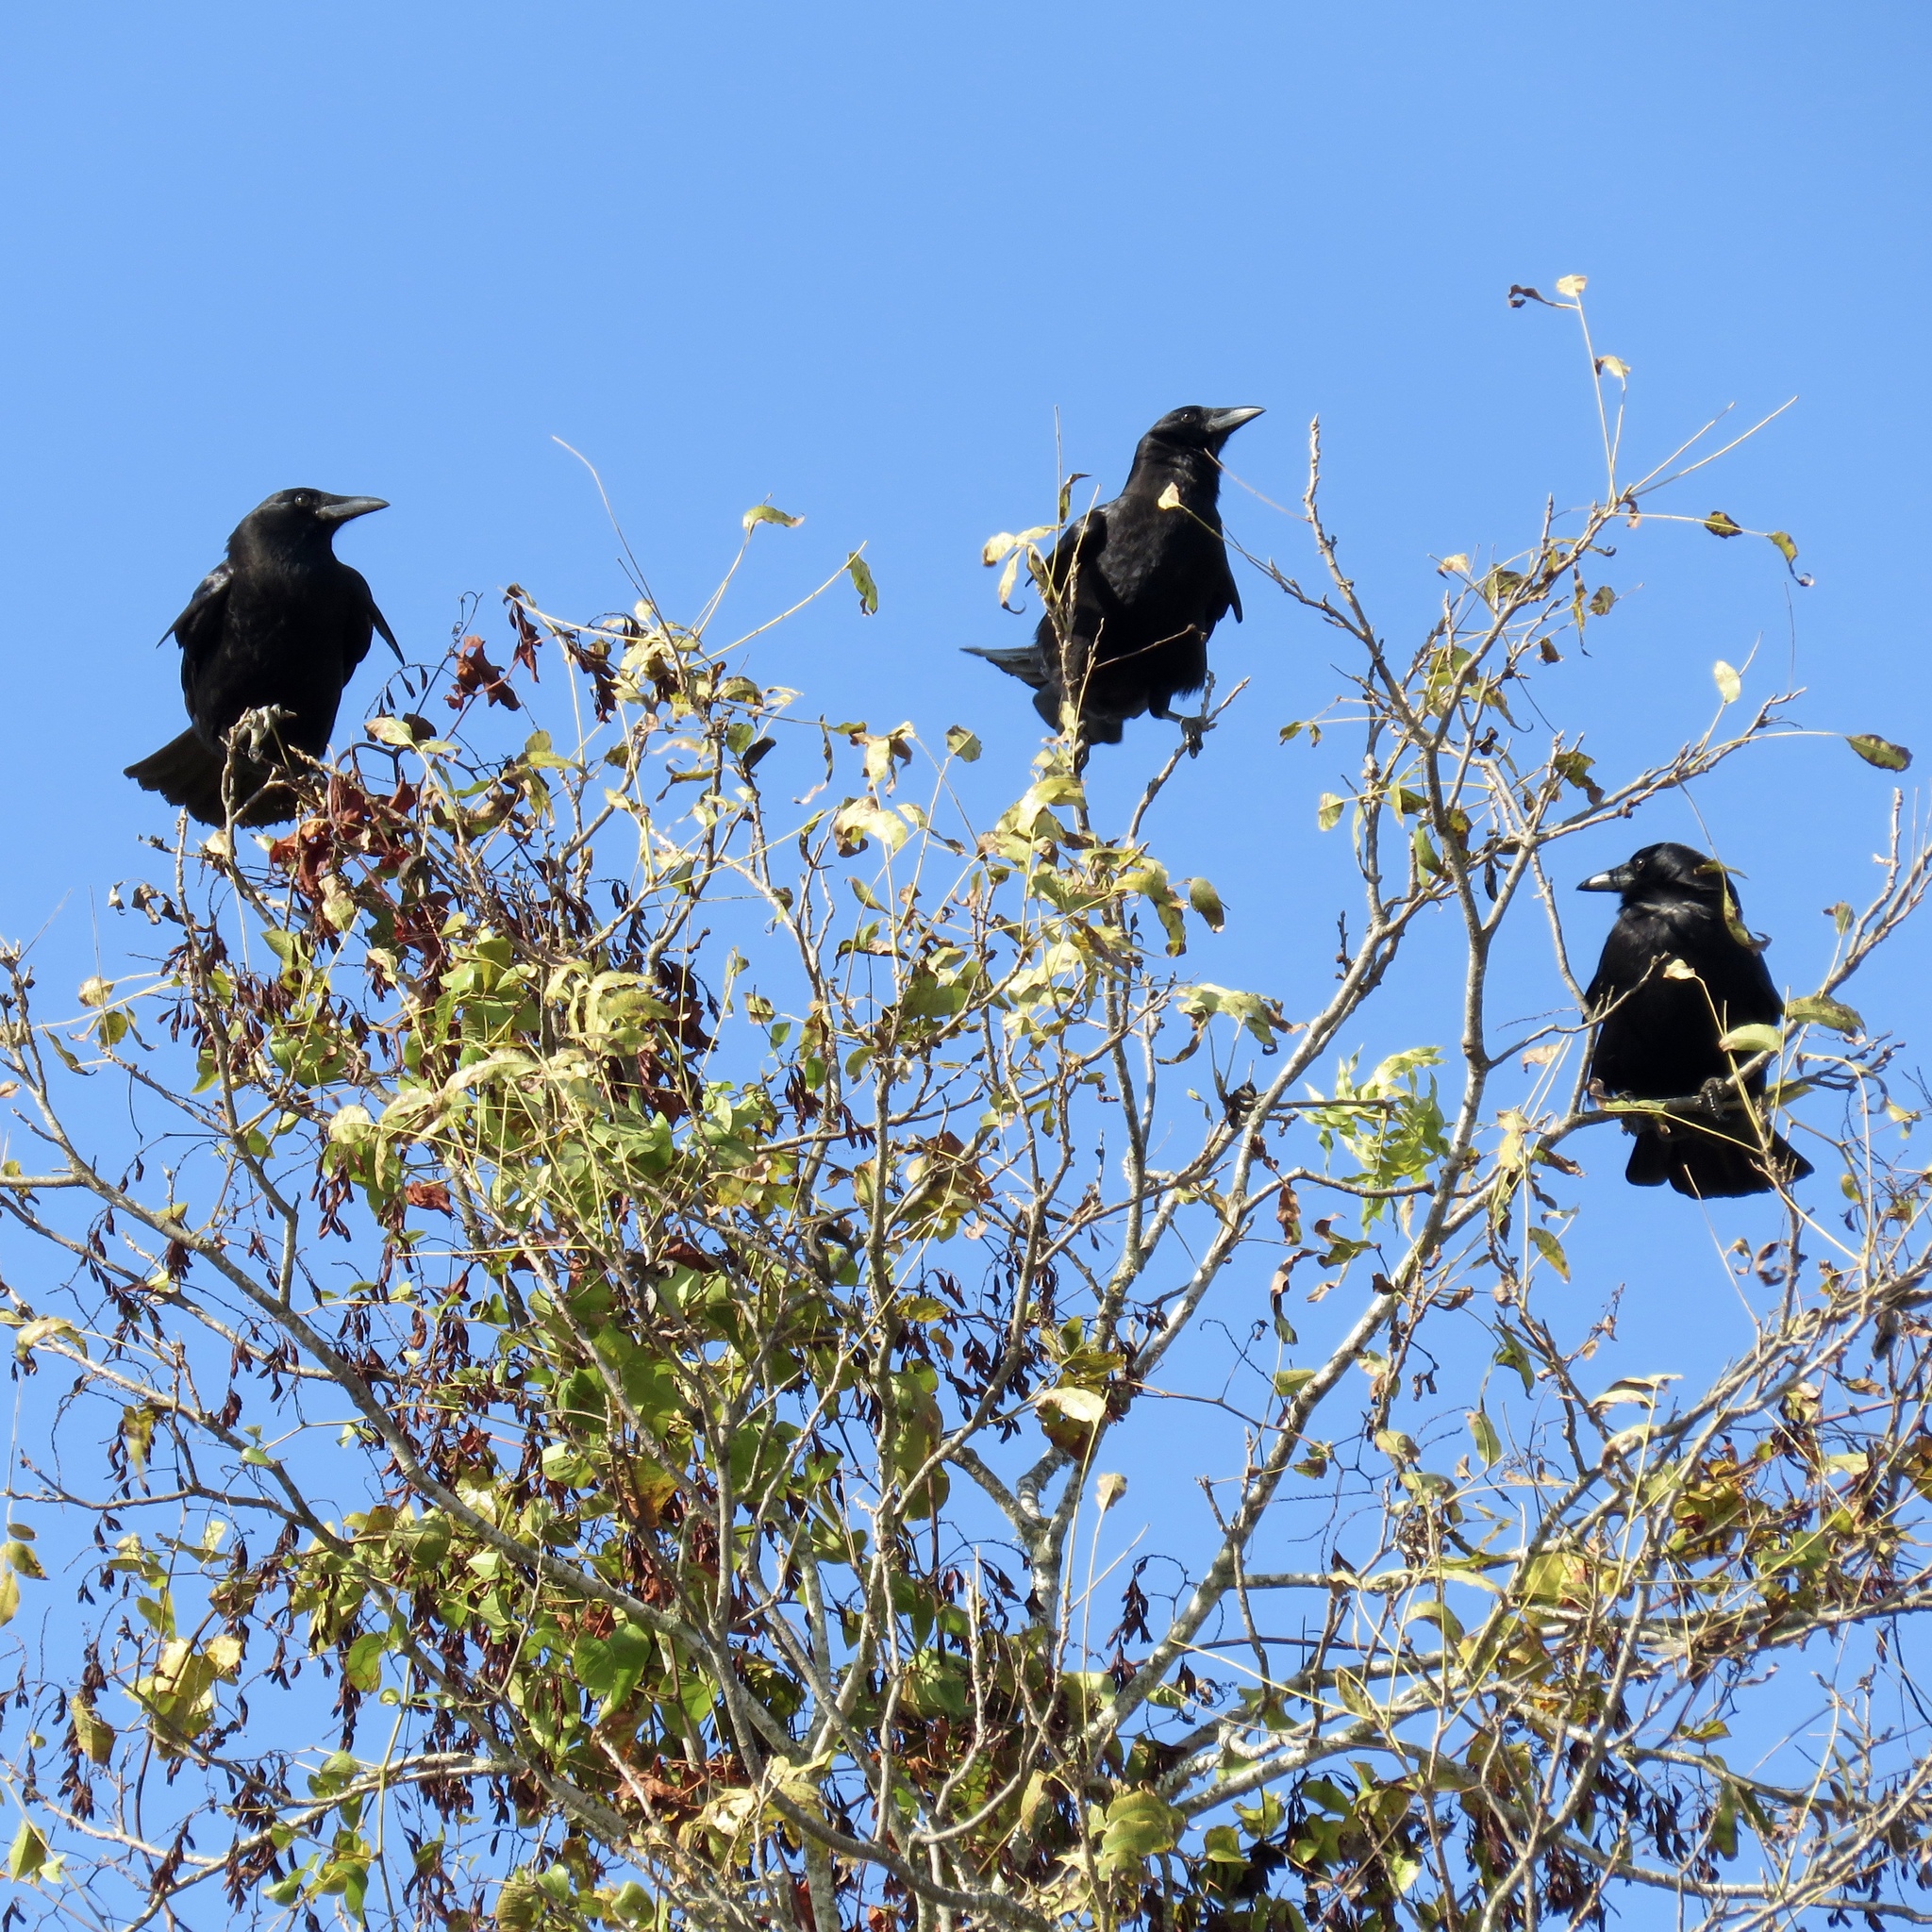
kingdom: Animalia
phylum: Chordata
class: Aves
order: Passeriformes
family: Corvidae
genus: Corvus
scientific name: Corvus brachyrhynchos
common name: American crow
